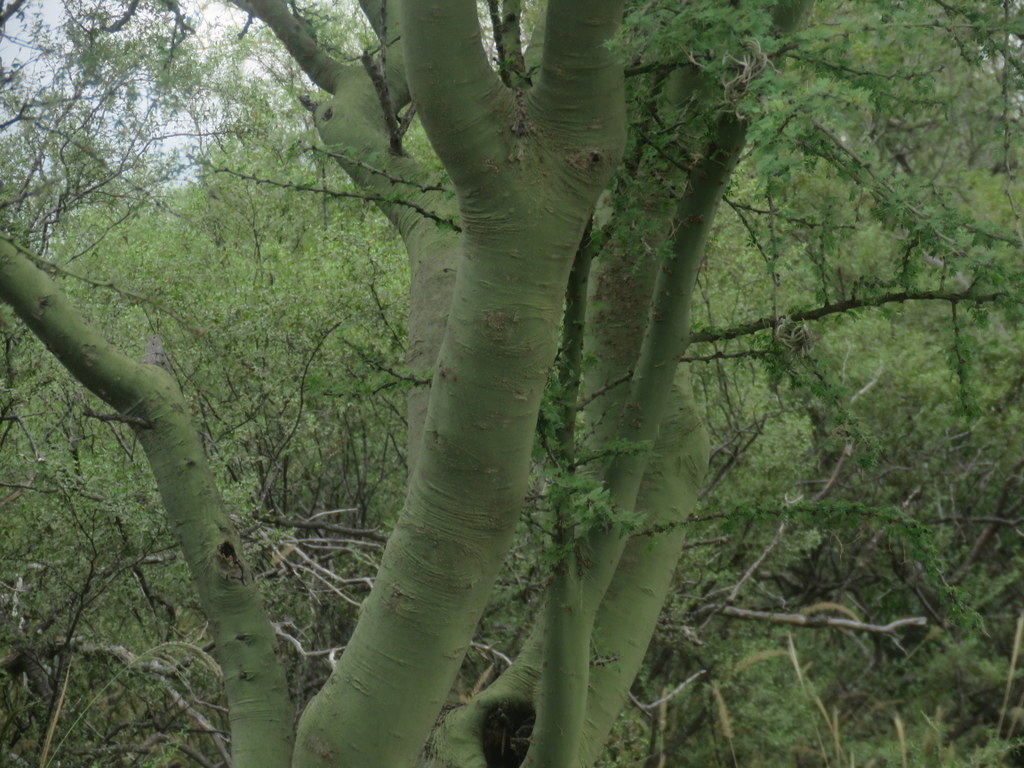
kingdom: Plantae
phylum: Tracheophyta
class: Magnoliopsida
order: Fabales
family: Fabaceae
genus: Parkinsonia
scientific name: Parkinsonia praecox
